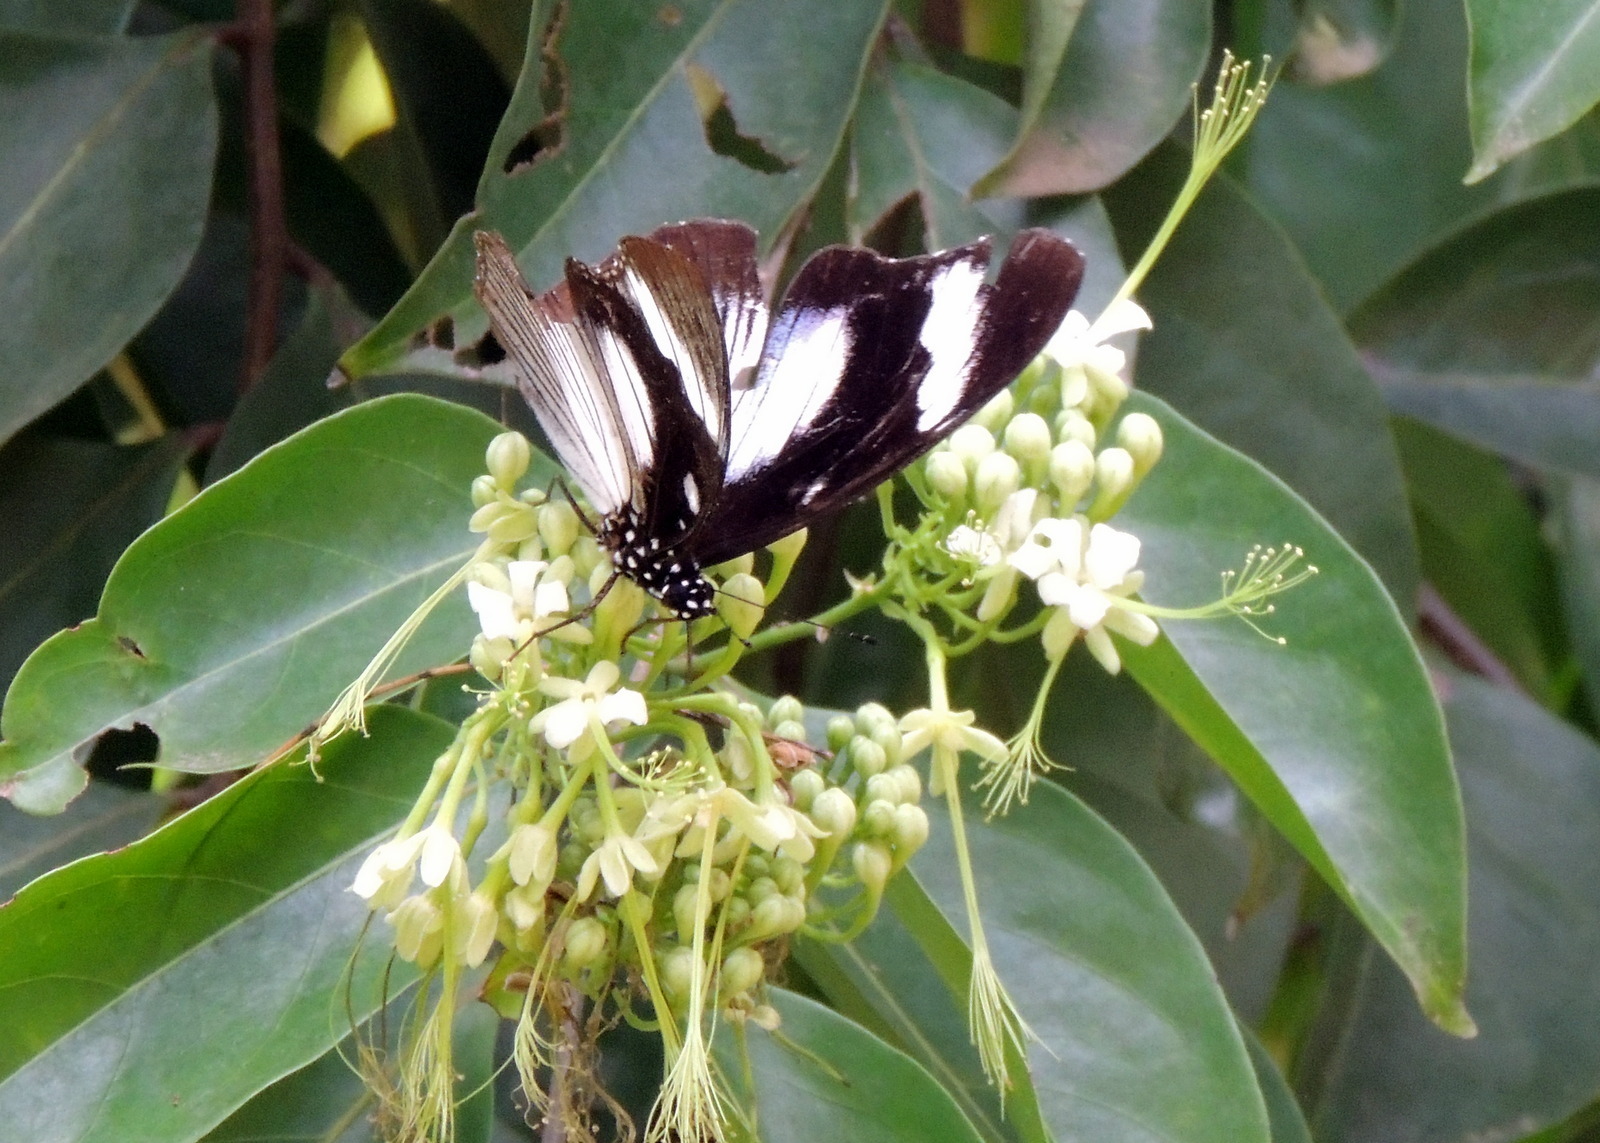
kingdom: Animalia
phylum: Arthropoda
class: Insecta
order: Lepidoptera
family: Nymphalidae
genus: Hypolimnas
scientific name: Hypolimnas dubius
